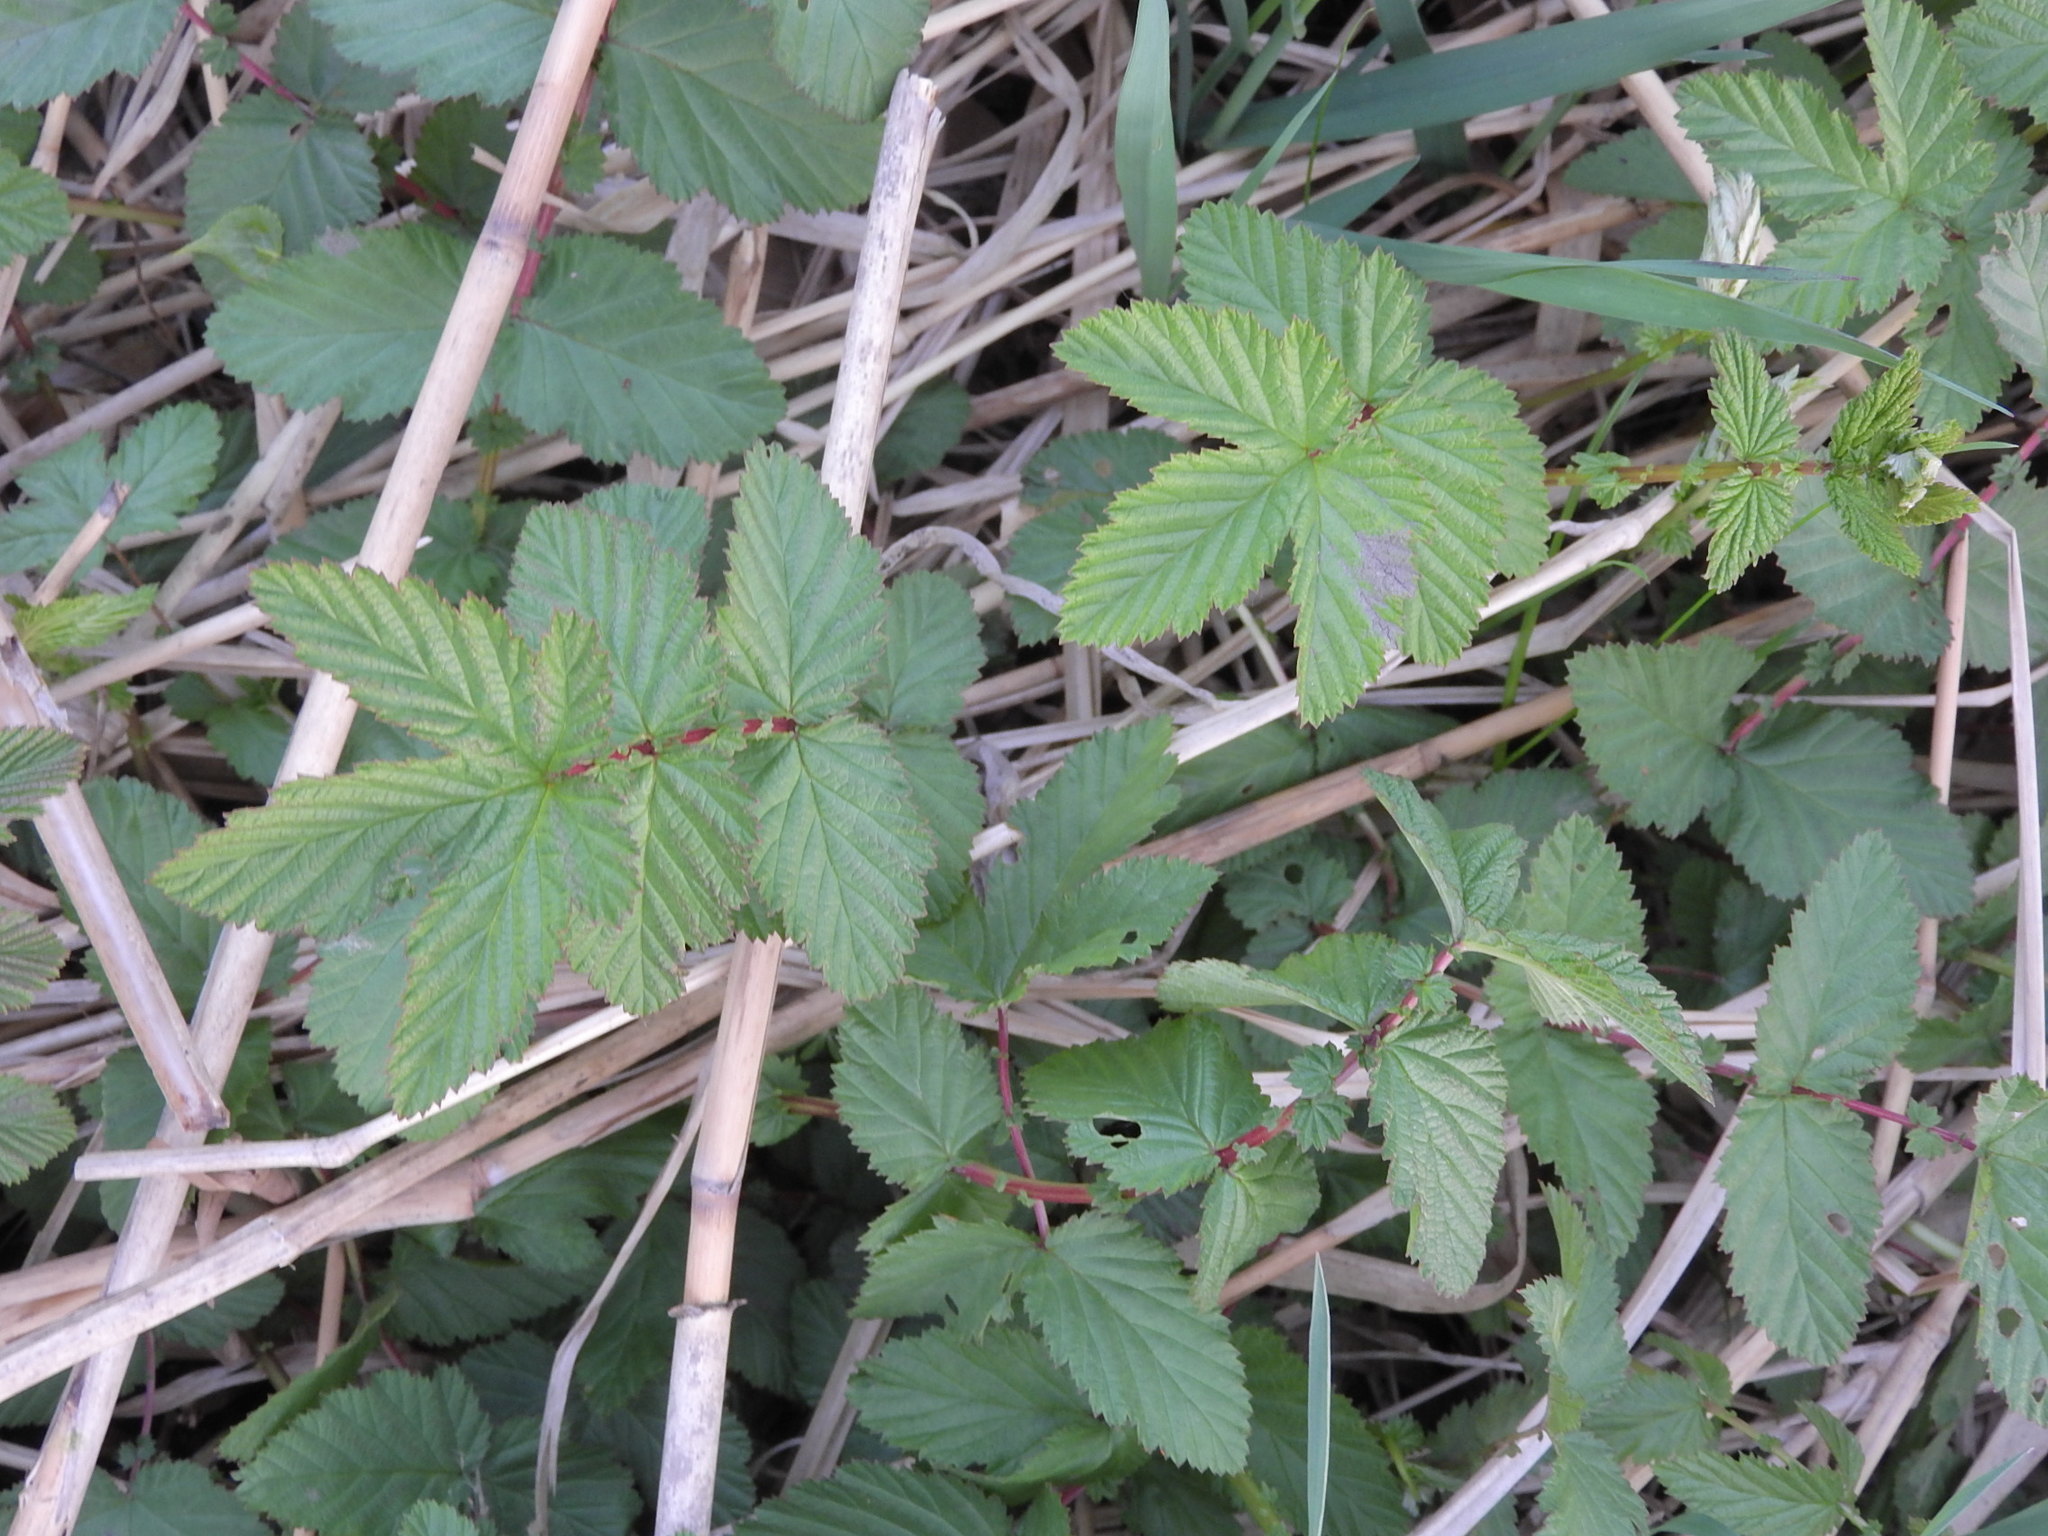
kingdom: Plantae
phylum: Tracheophyta
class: Magnoliopsida
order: Rosales
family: Rosaceae
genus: Filipendula
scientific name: Filipendula ulmaria
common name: Meadowsweet
